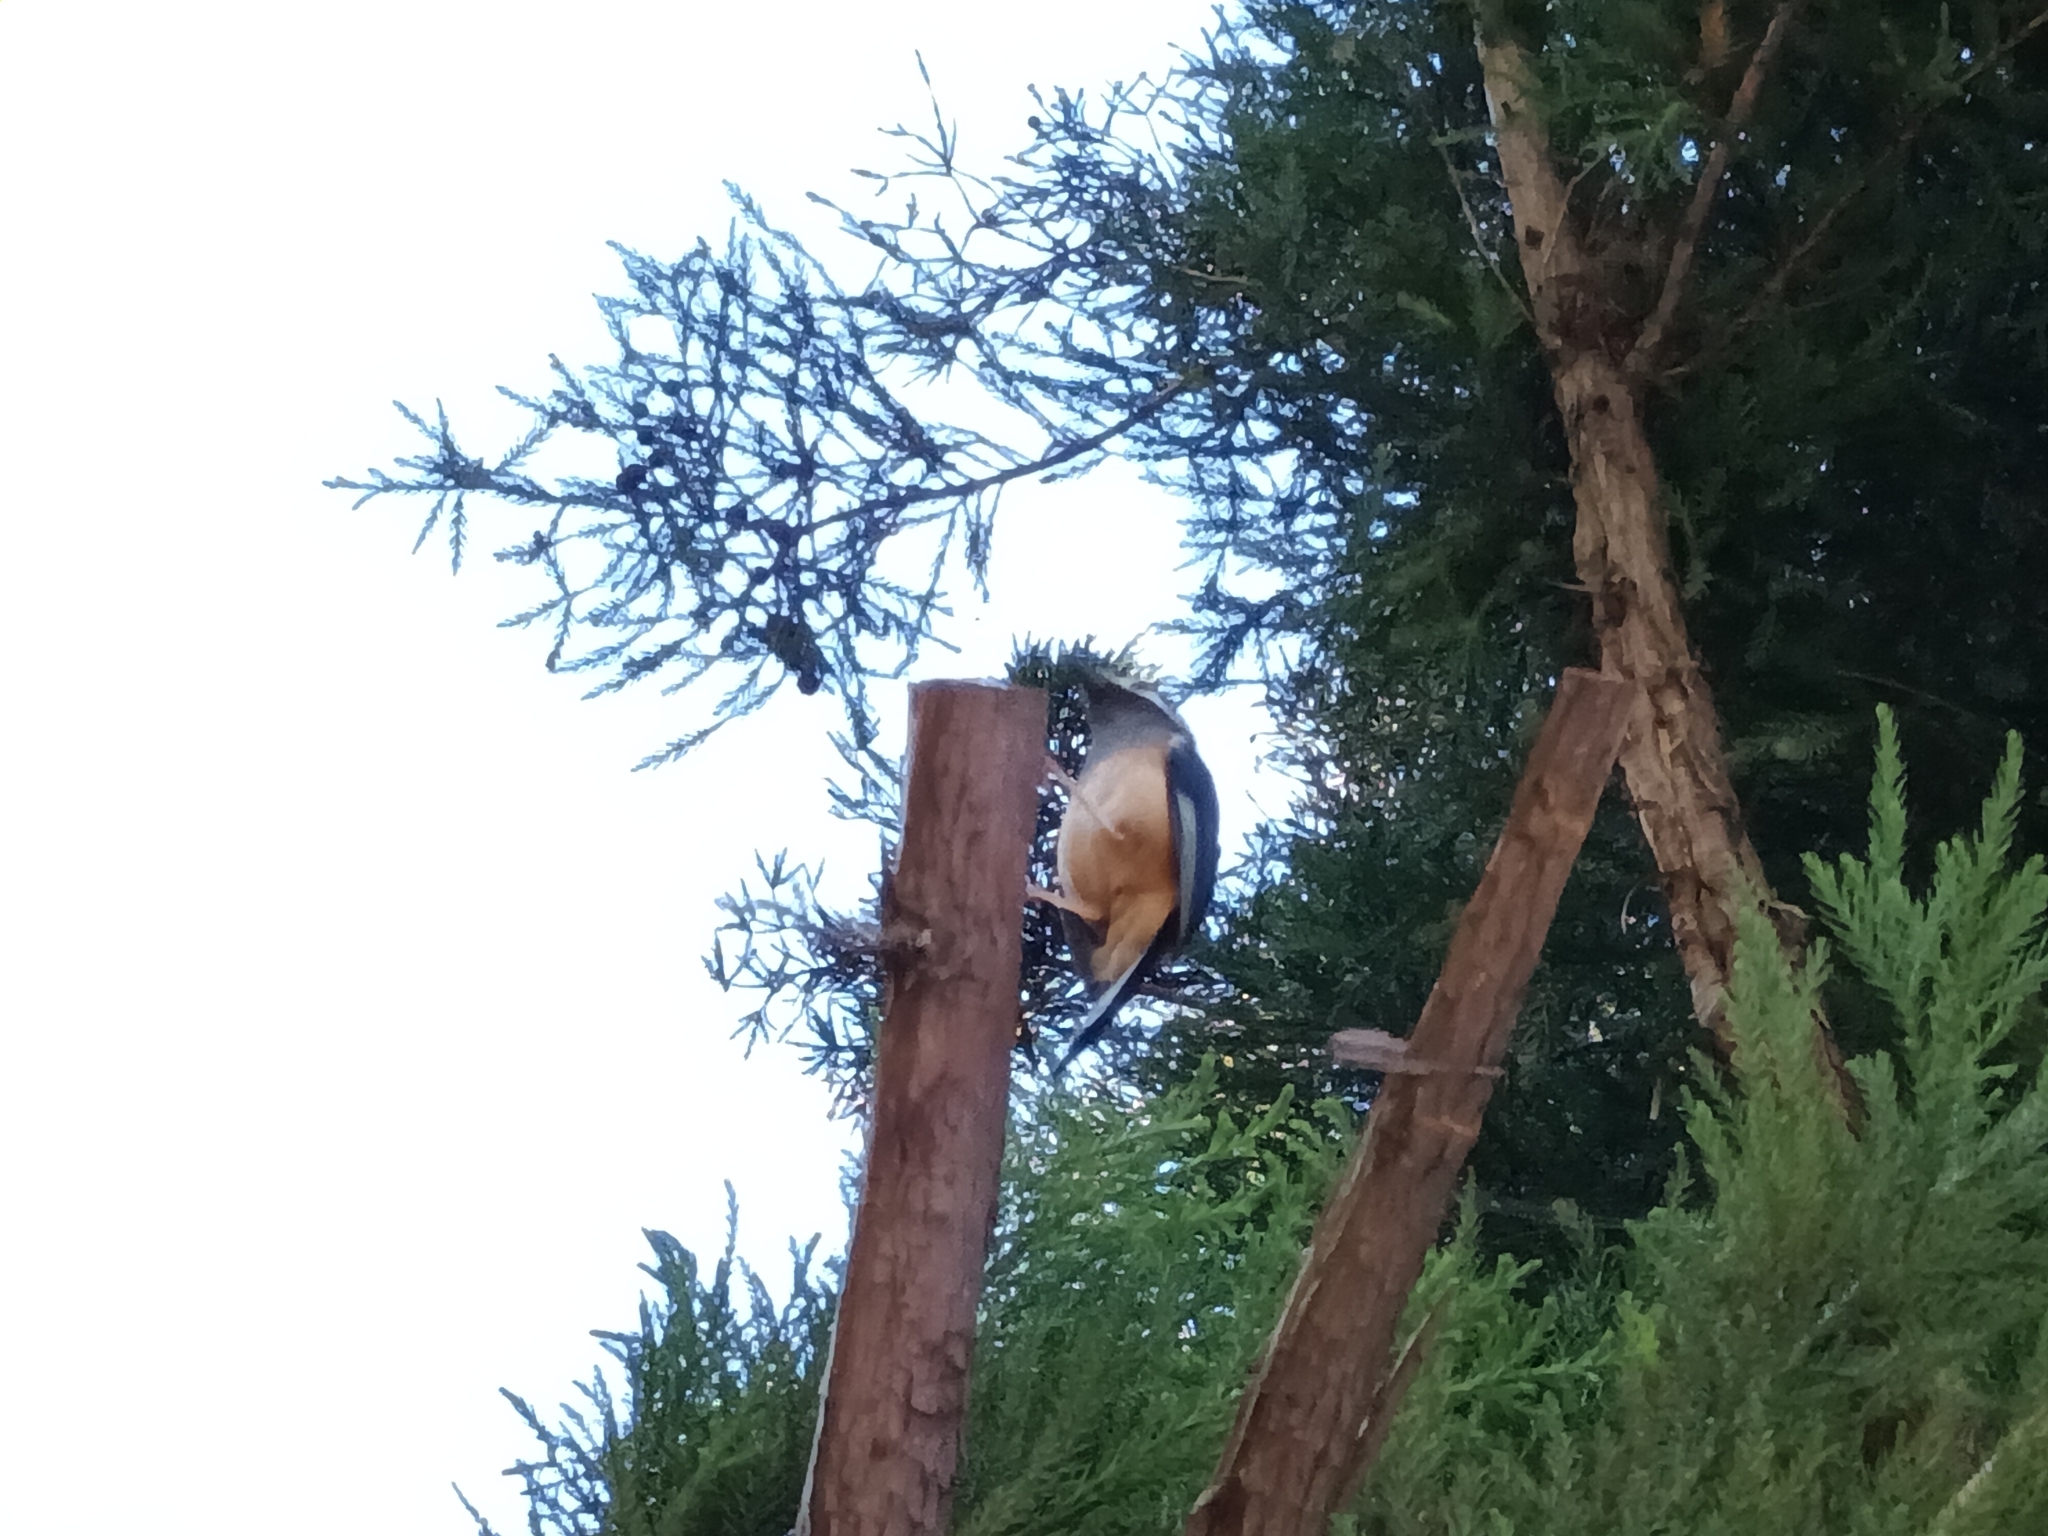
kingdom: Animalia
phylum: Chordata
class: Aves
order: Passeriformes
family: Leiothrichidae
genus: Heterophasia
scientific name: Heterophasia auricularis
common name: White-eared sibia
